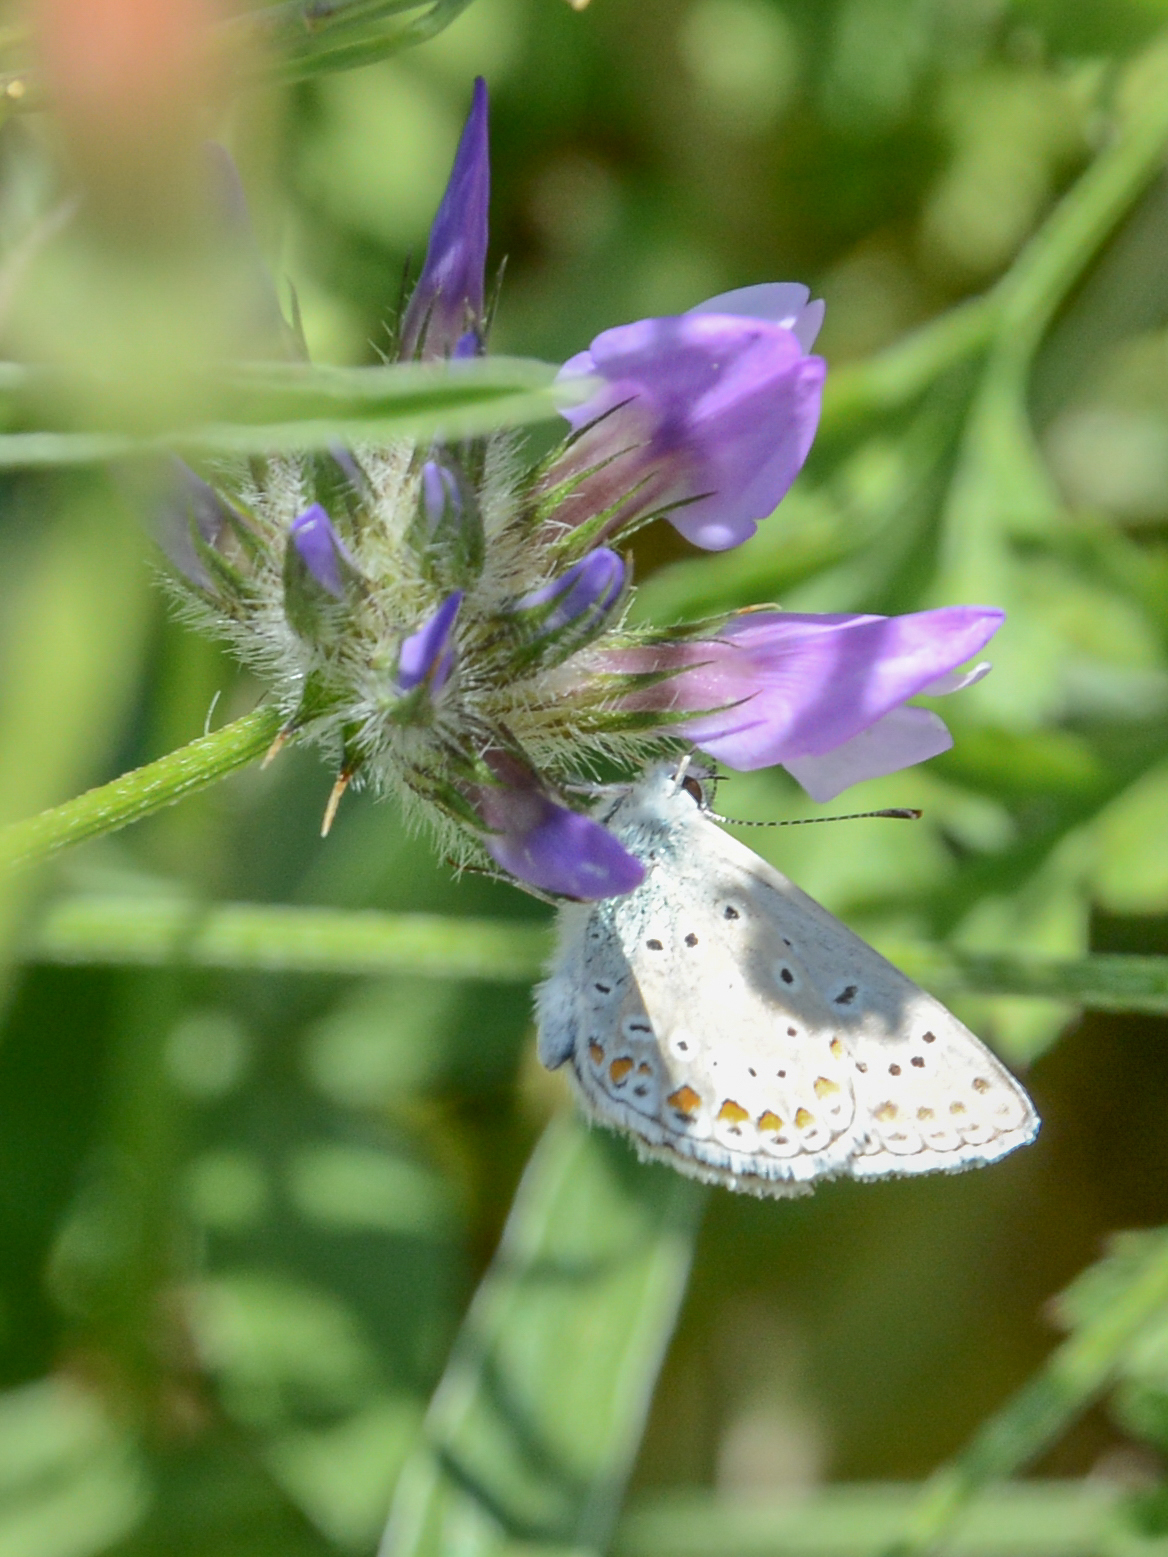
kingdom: Animalia
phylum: Arthropoda
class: Insecta
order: Lepidoptera
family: Lycaenidae
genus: Polyommatus
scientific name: Polyommatus icarus
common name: Common blue
